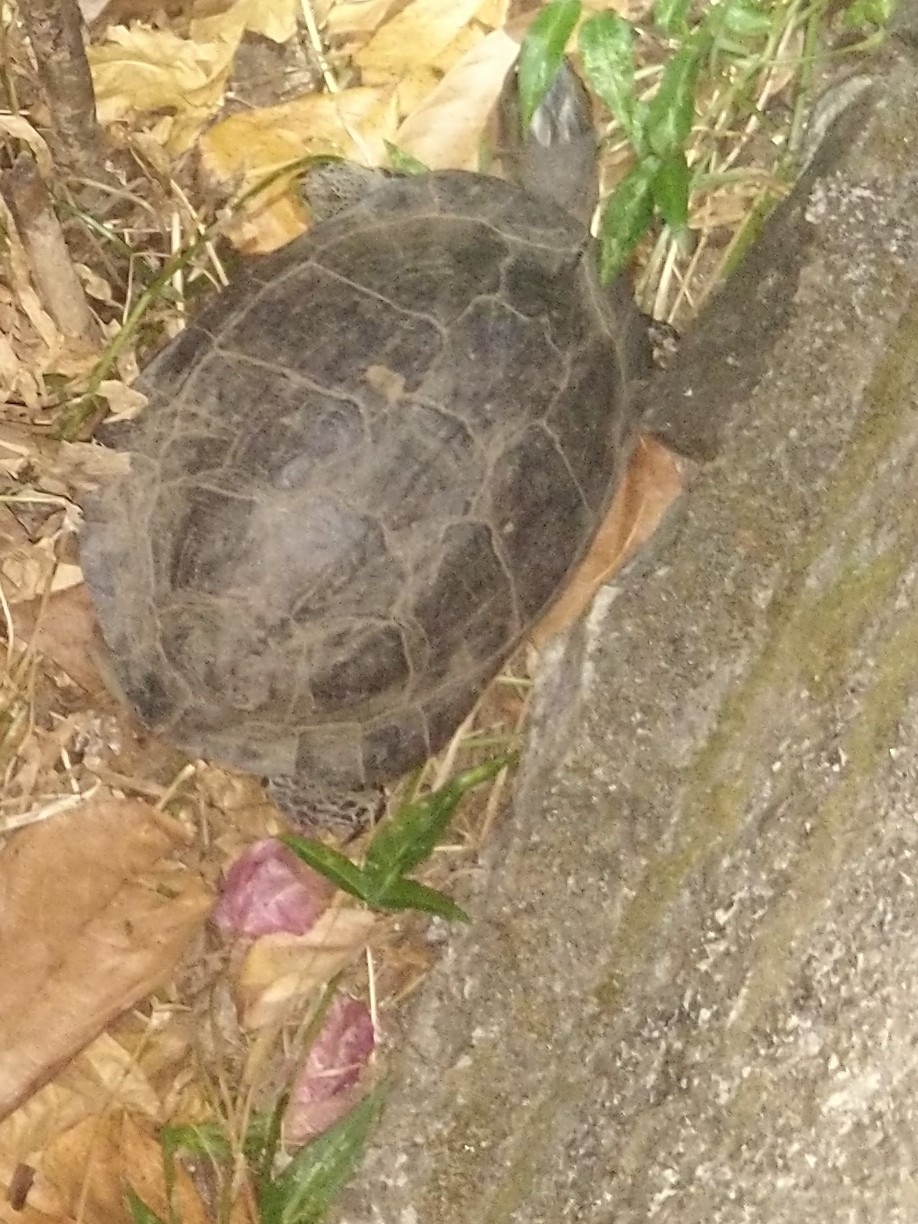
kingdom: Animalia
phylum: Chordata
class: Testudines
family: Geoemydidae
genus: Melanochelys
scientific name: Melanochelys trijuga
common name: Indian black turtle
